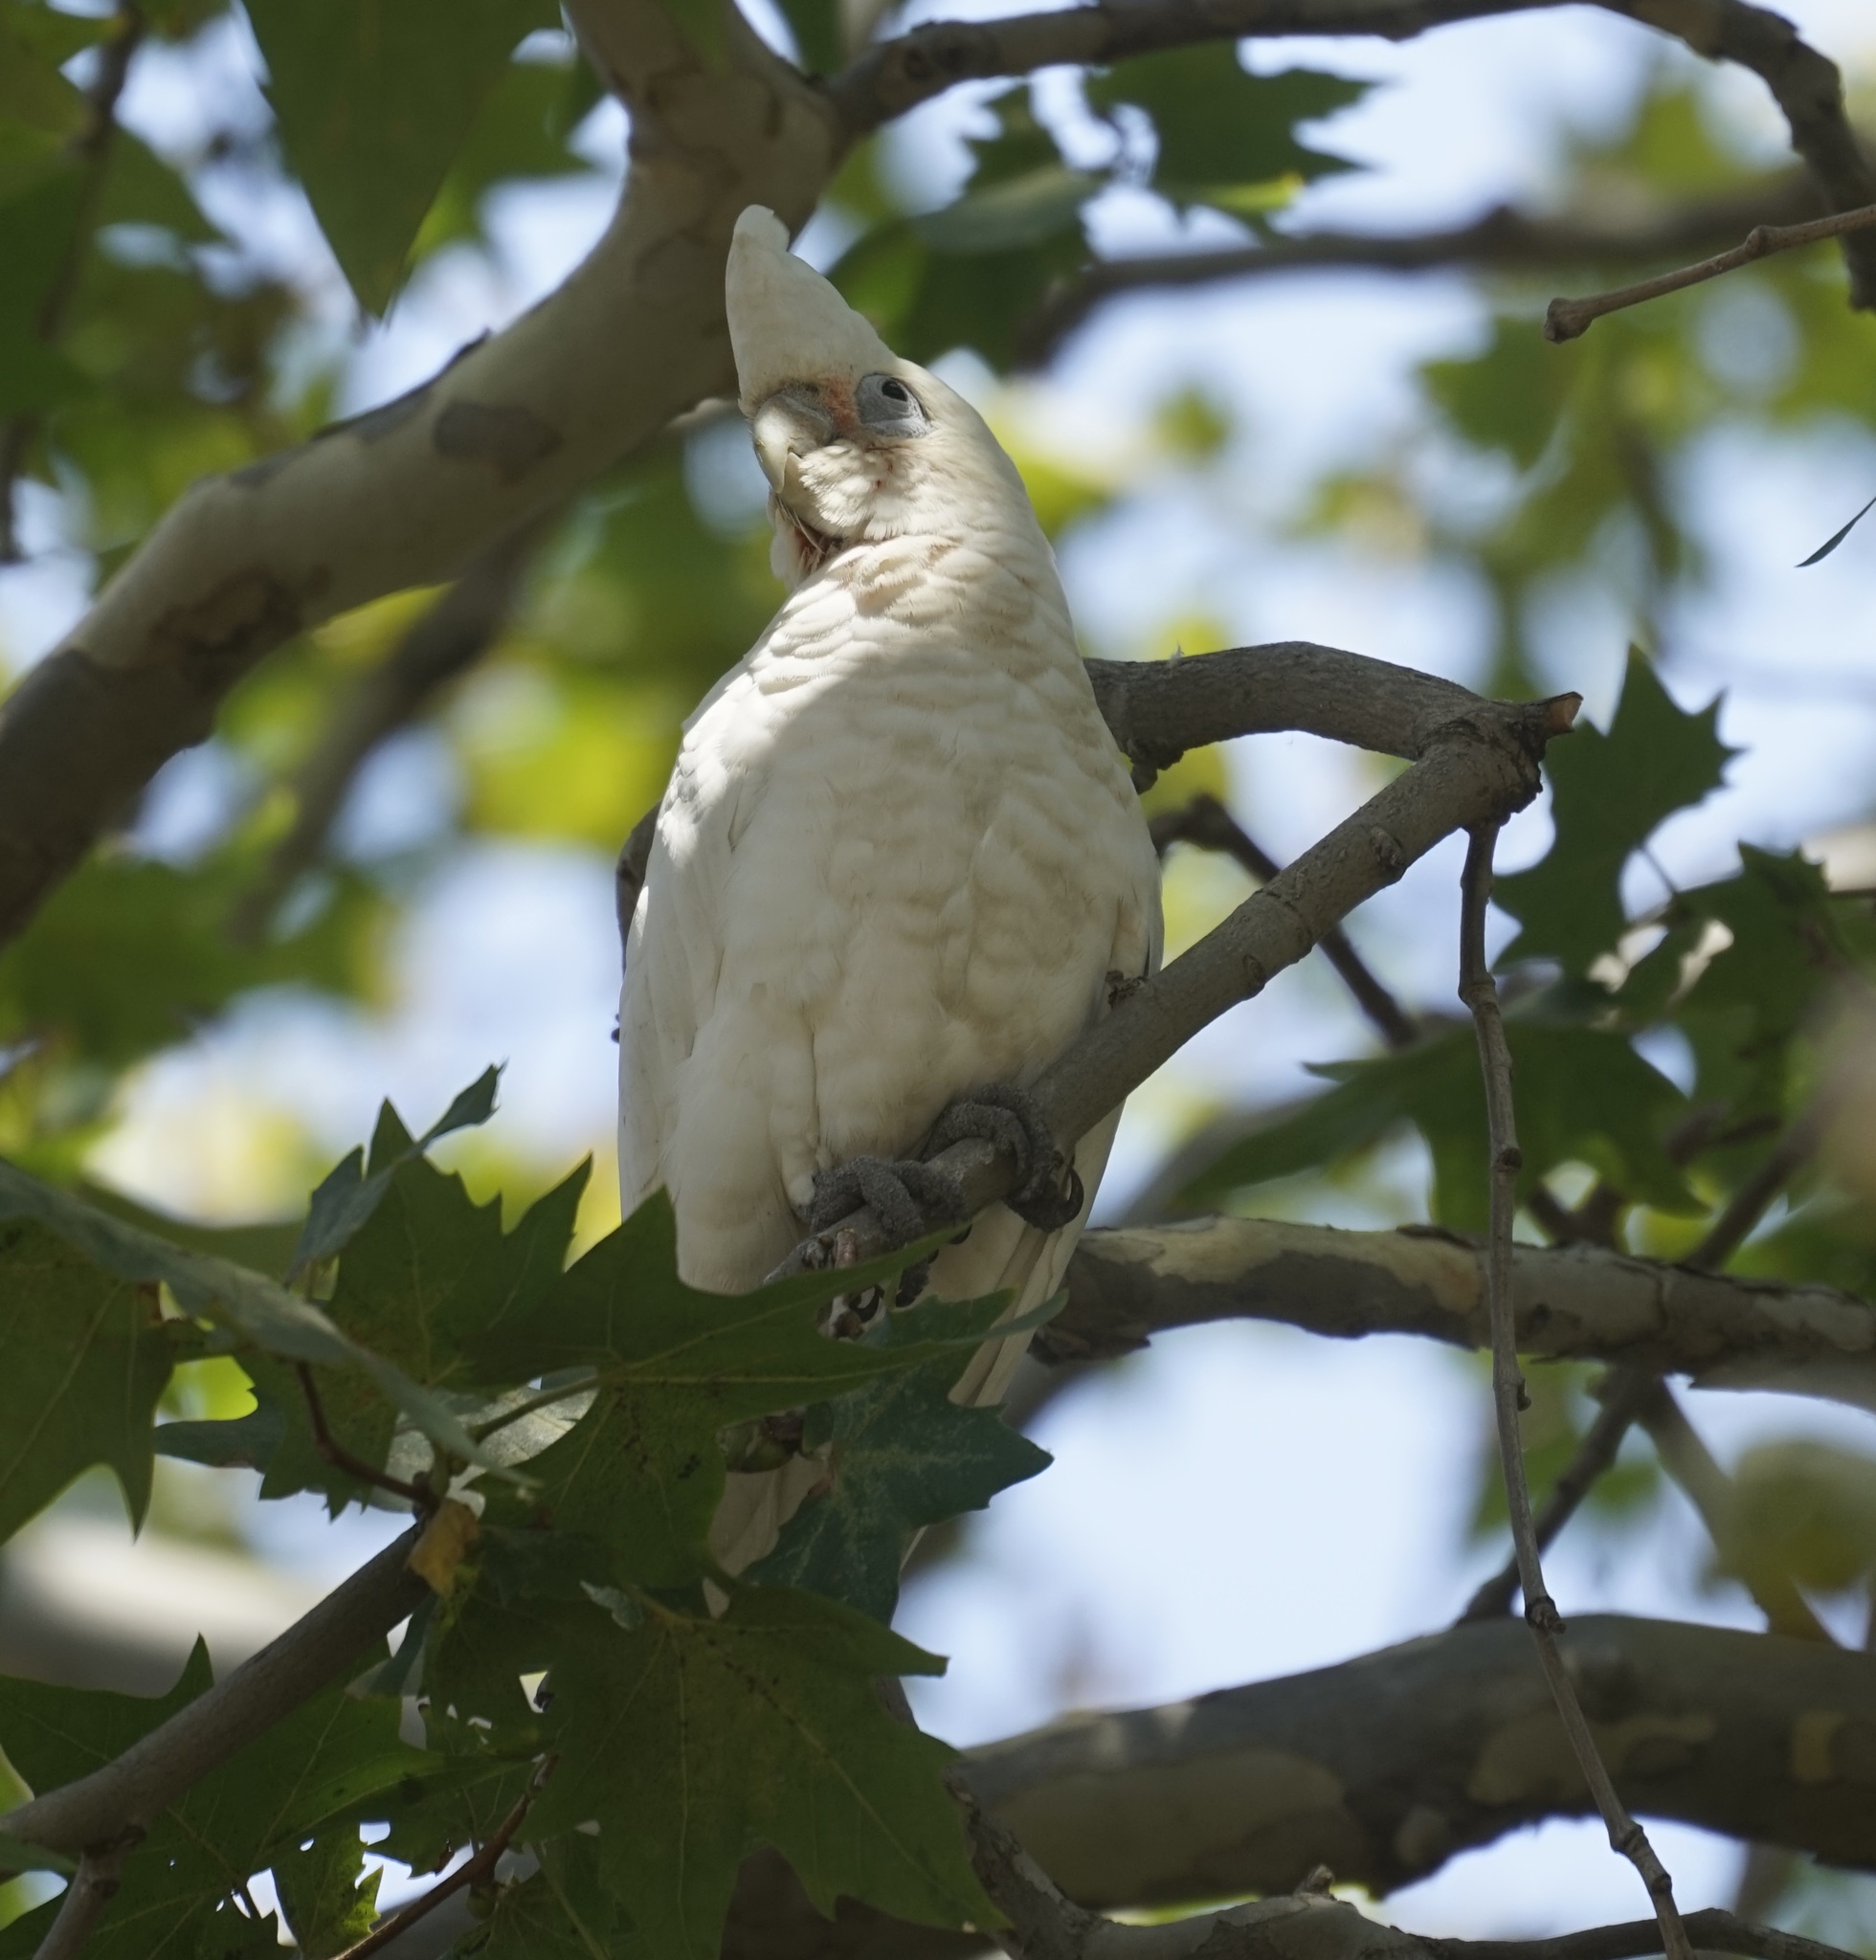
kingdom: Animalia
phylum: Chordata
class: Aves
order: Psittaciformes
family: Psittacidae
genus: Cacatua
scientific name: Cacatua sanguinea
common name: Little corella
